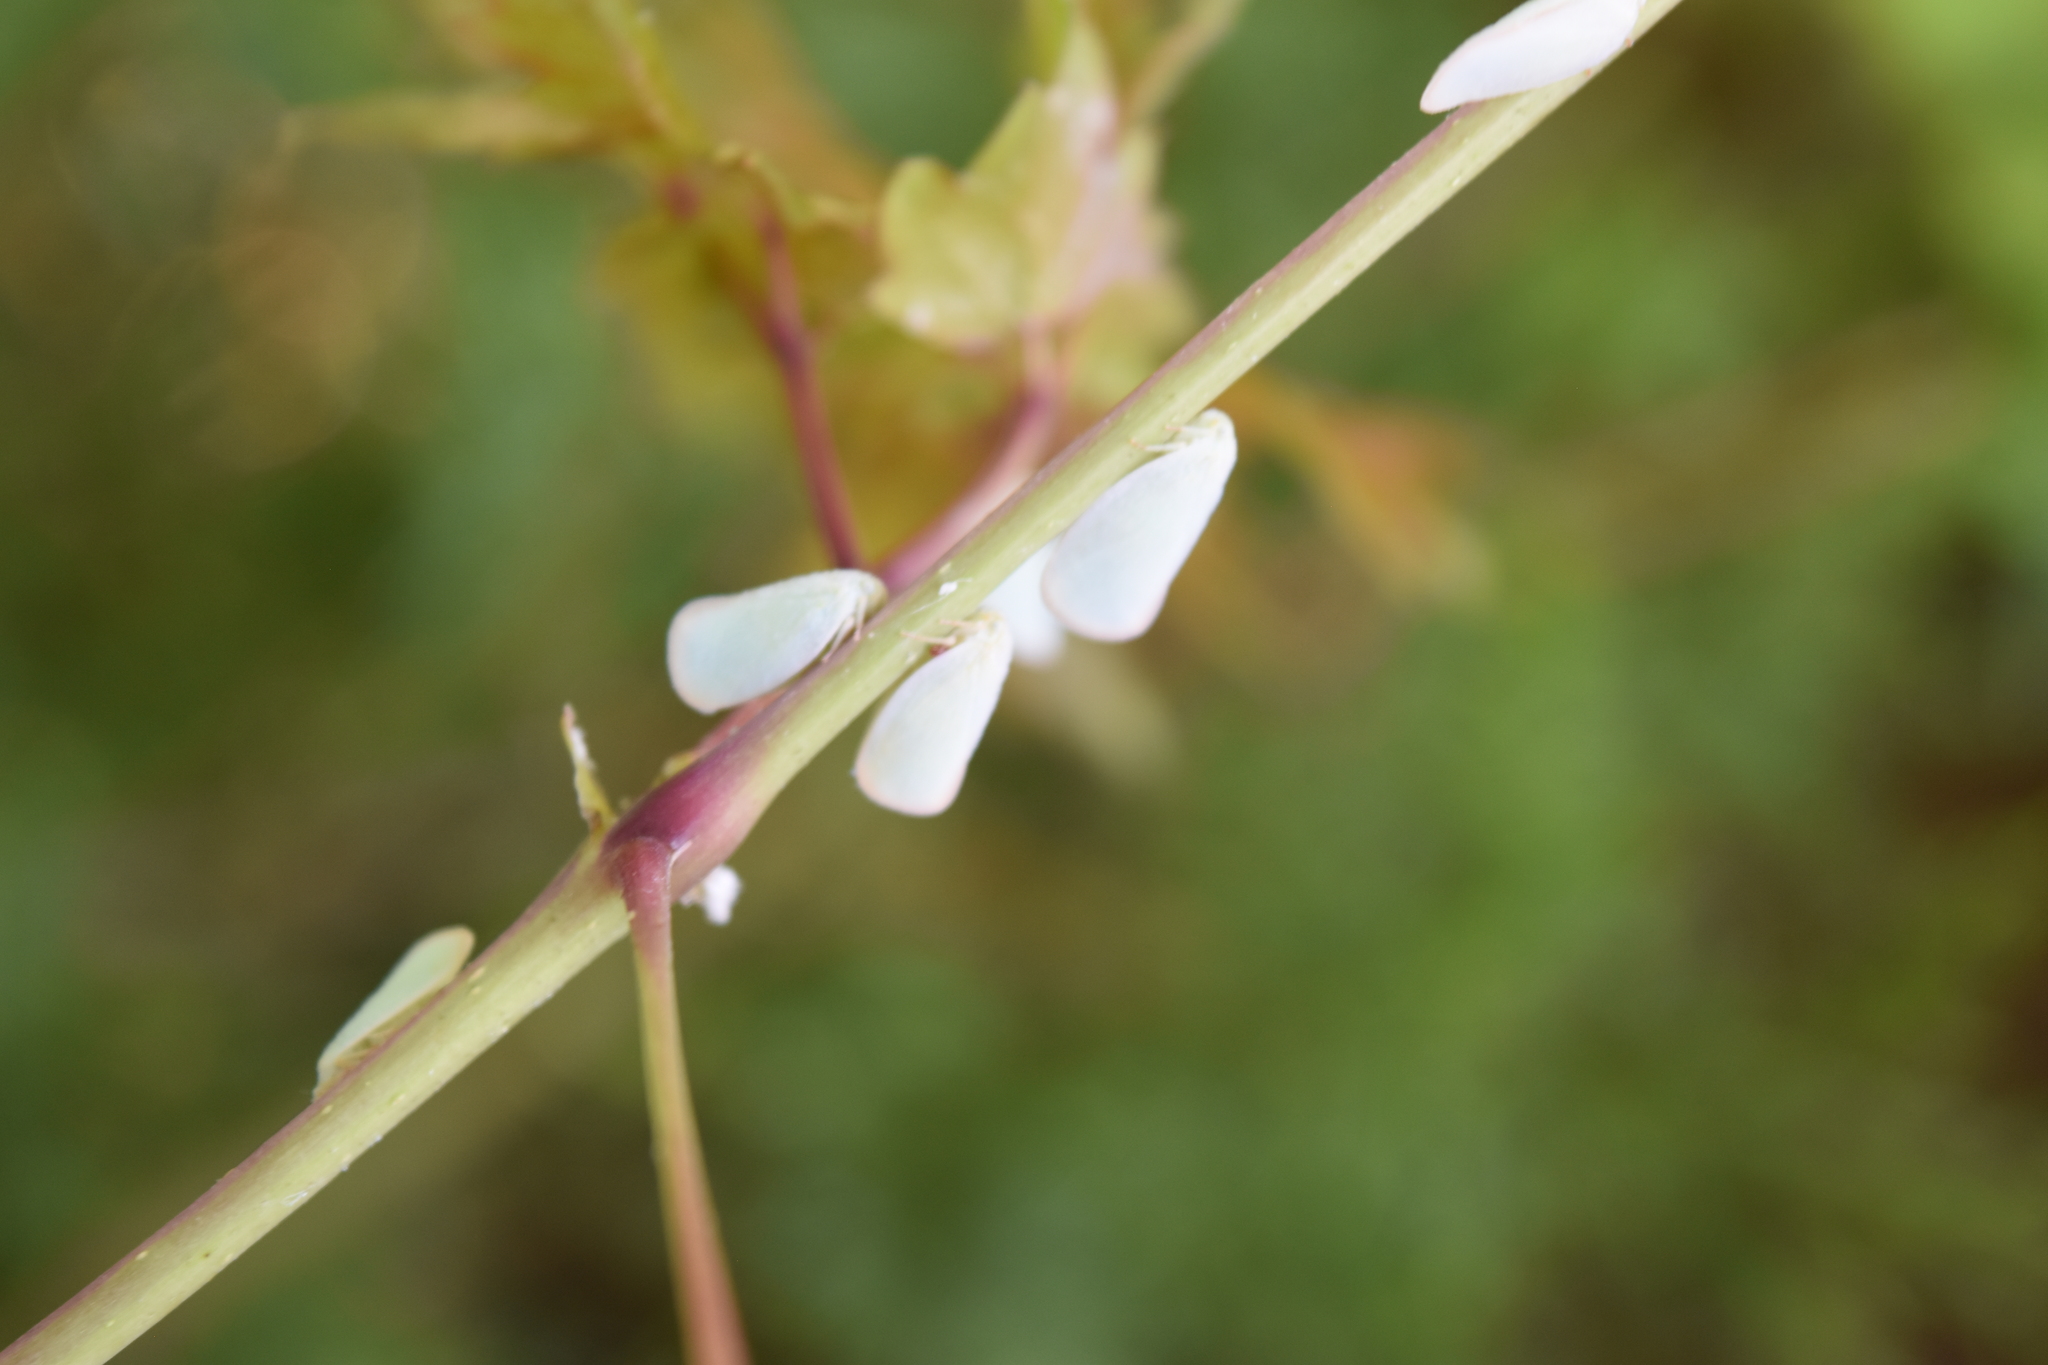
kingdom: Animalia
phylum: Arthropoda
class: Insecta
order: Hemiptera
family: Flatidae
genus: Ormenoides
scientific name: Ormenoides venusta
